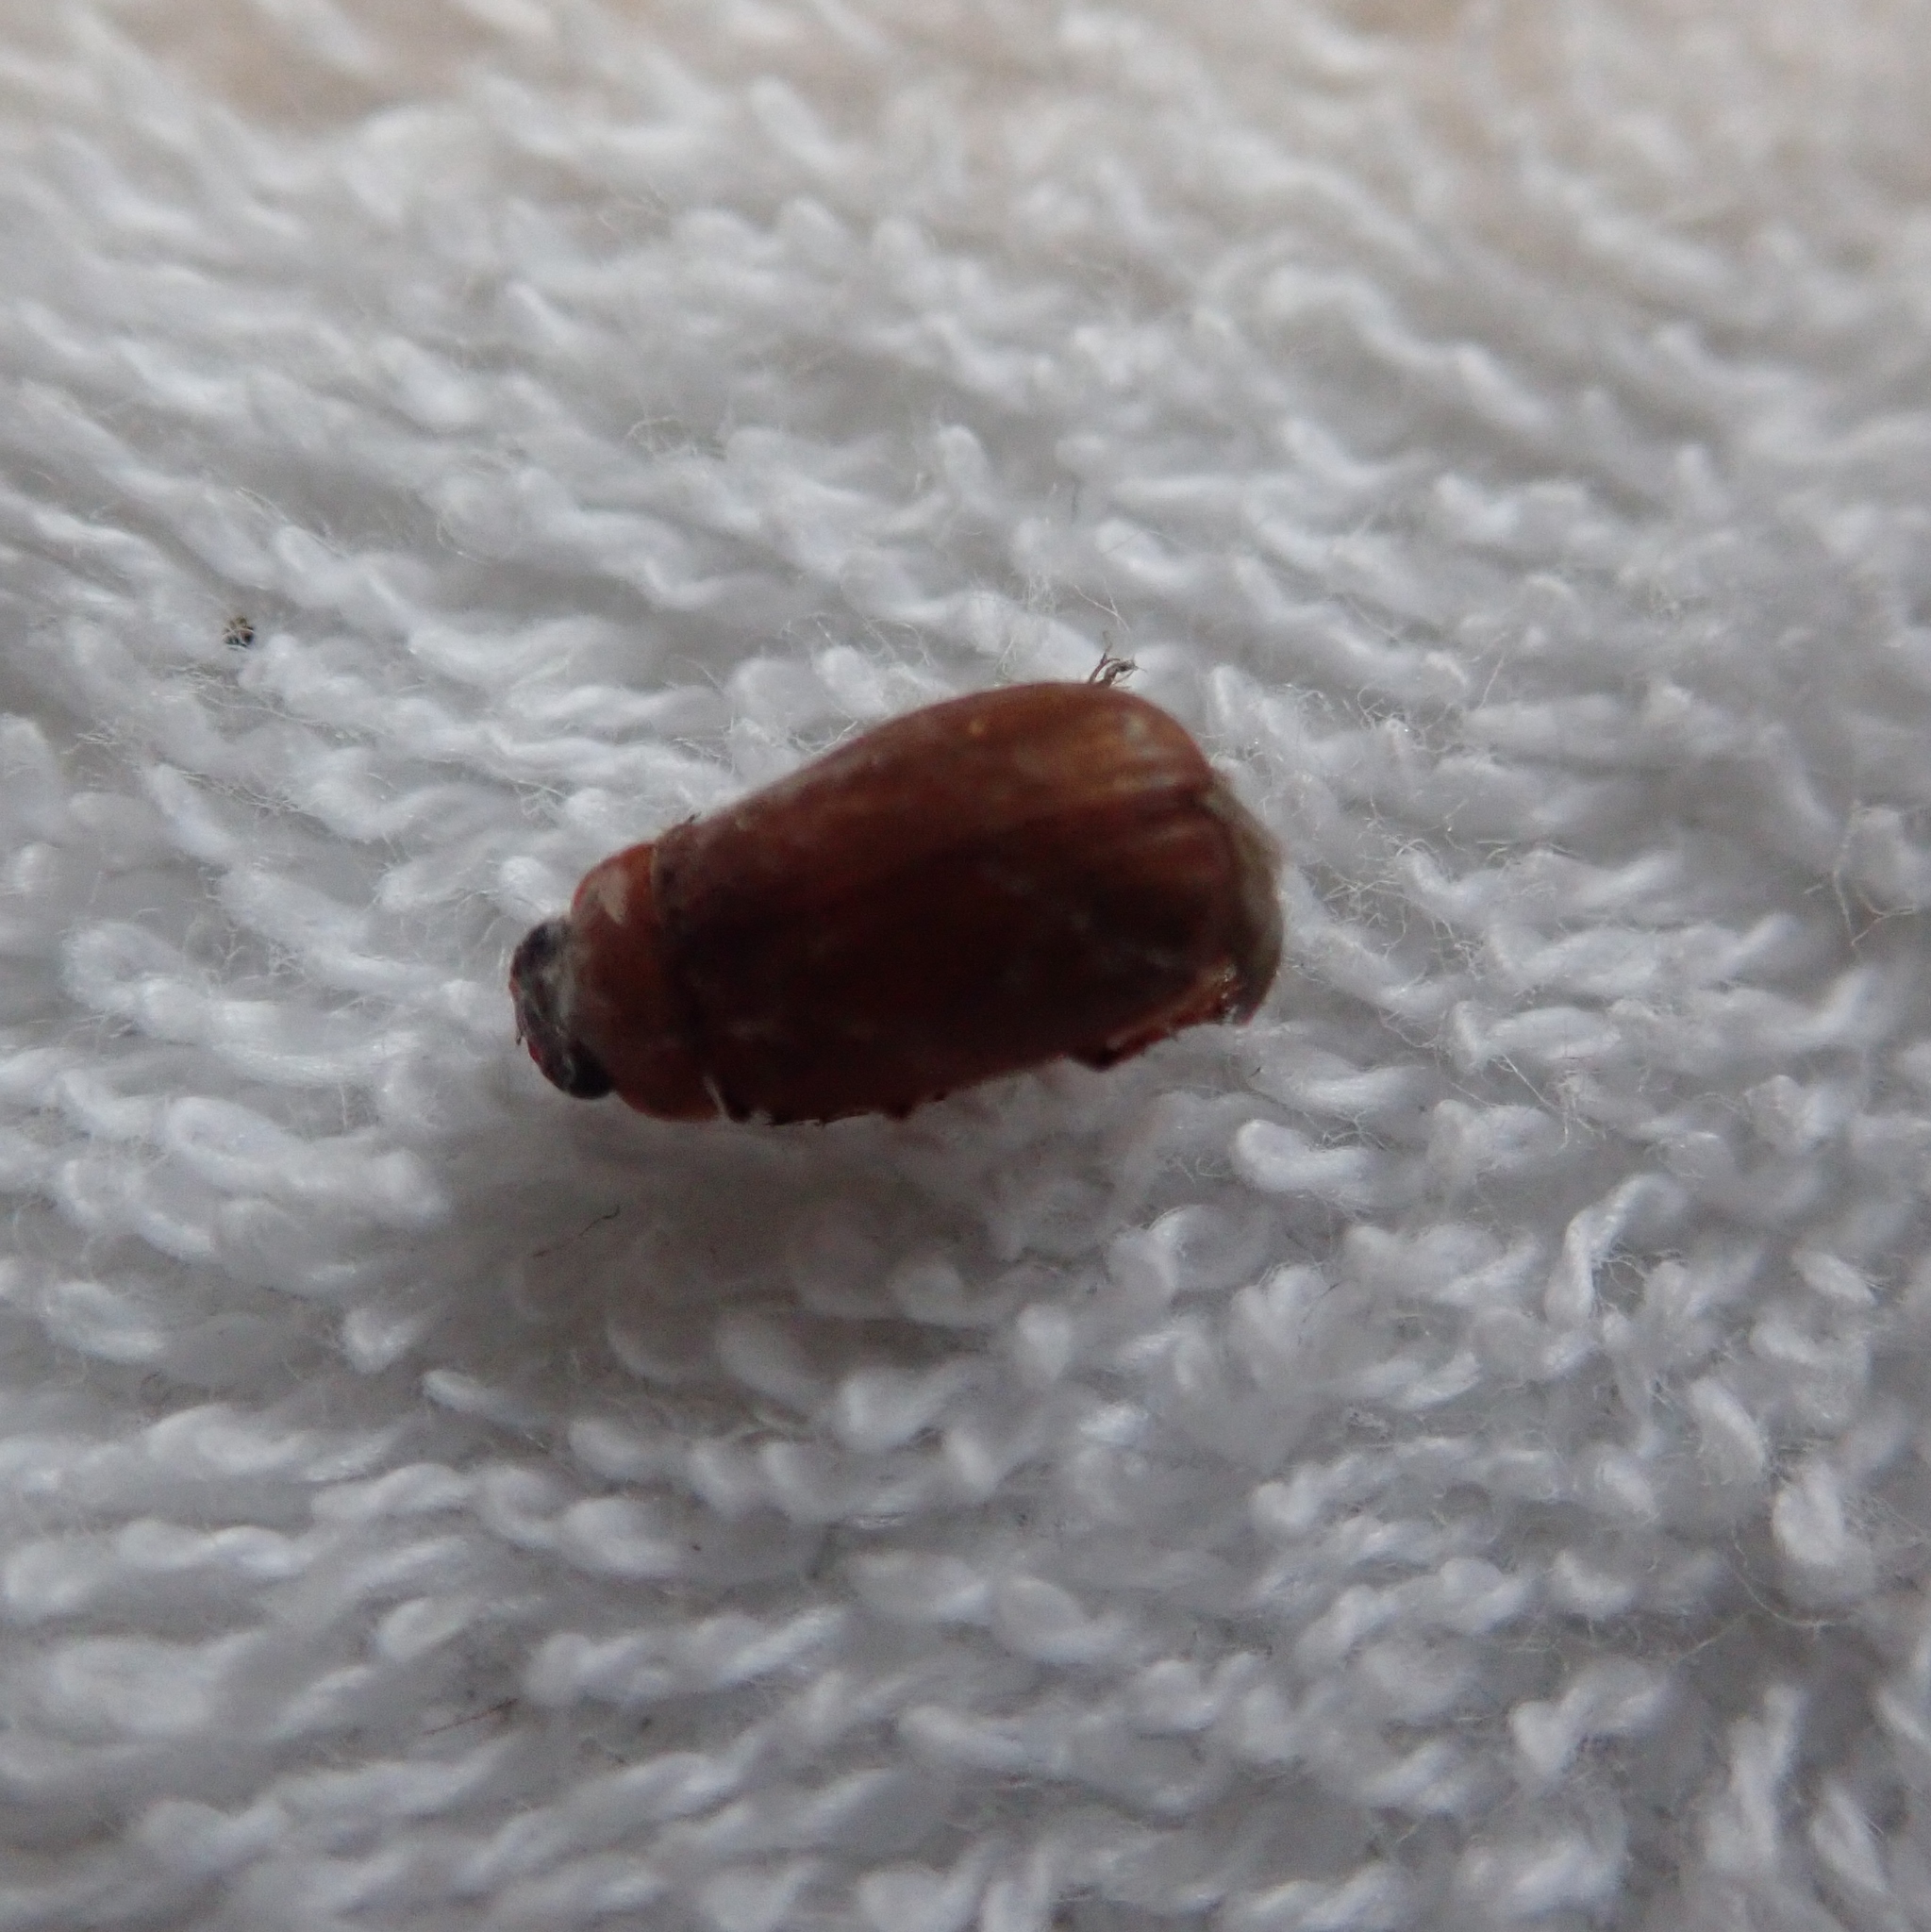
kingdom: Animalia
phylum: Arthropoda
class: Insecta
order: Coleoptera
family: Scarabaeidae
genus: Serica
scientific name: Serica brunnea
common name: Brown chafer
